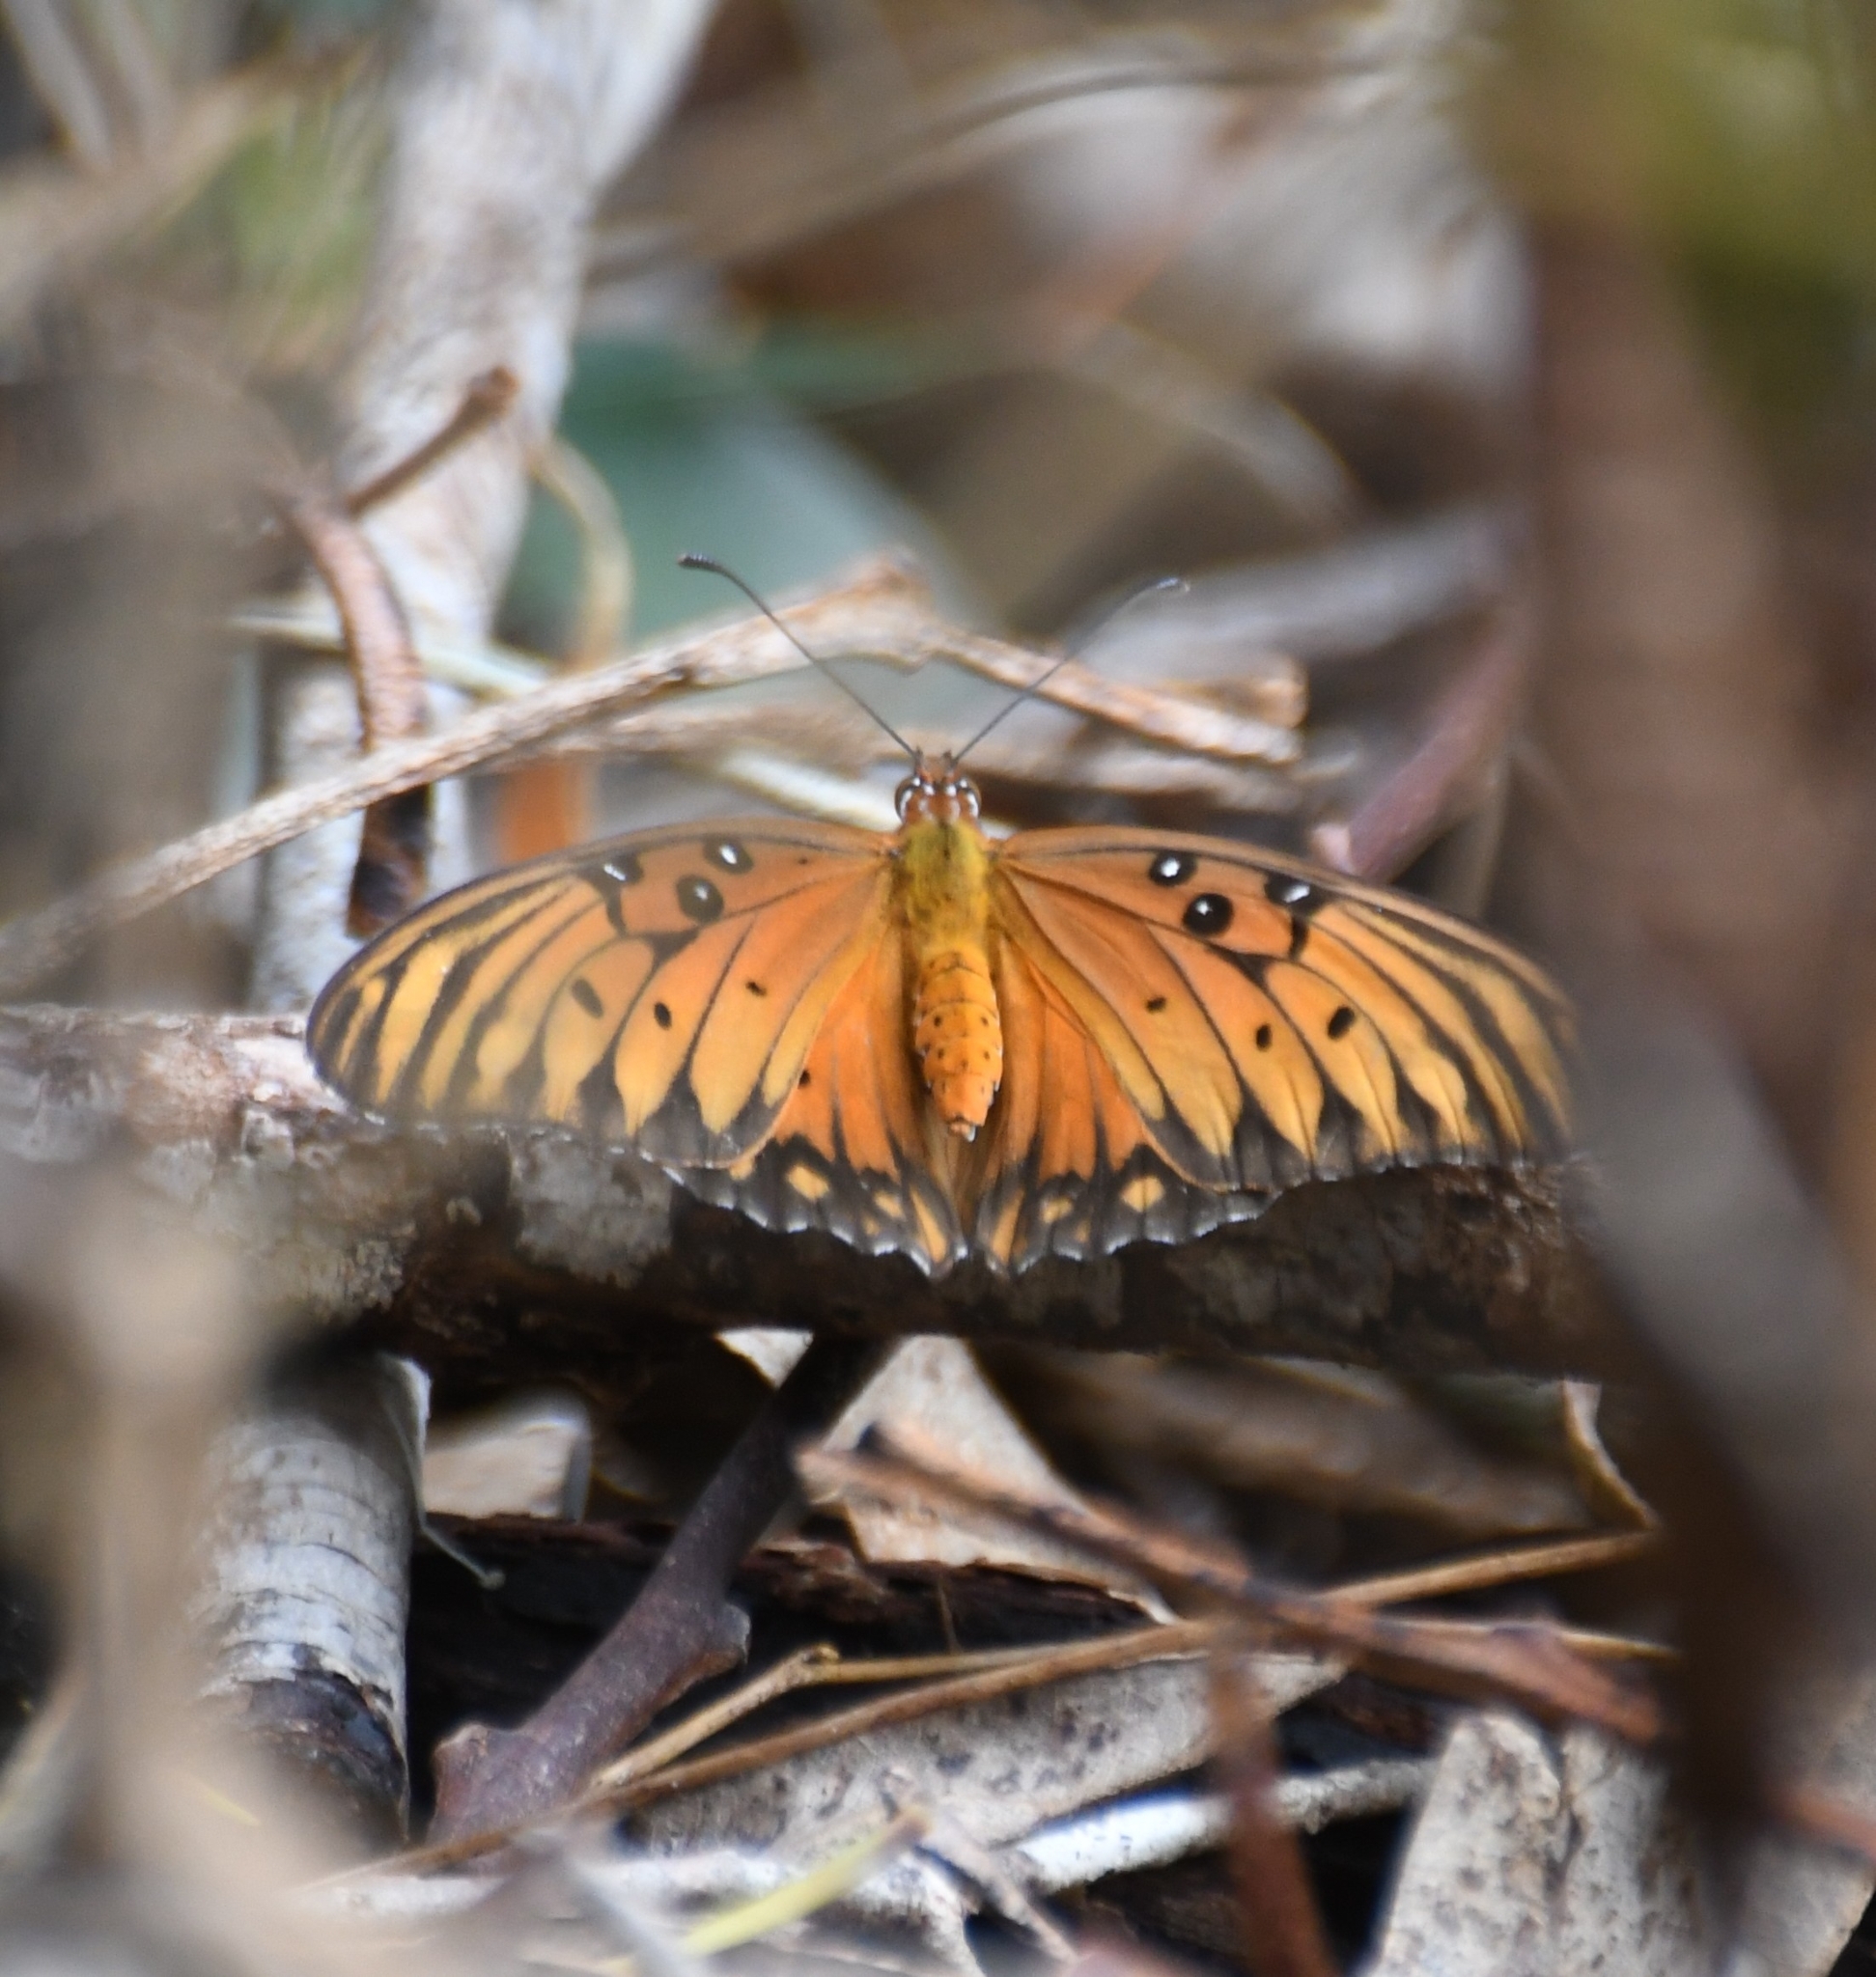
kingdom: Animalia
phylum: Arthropoda
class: Insecta
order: Lepidoptera
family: Nymphalidae
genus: Dione
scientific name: Dione vanillae
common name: Gulf fritillary
